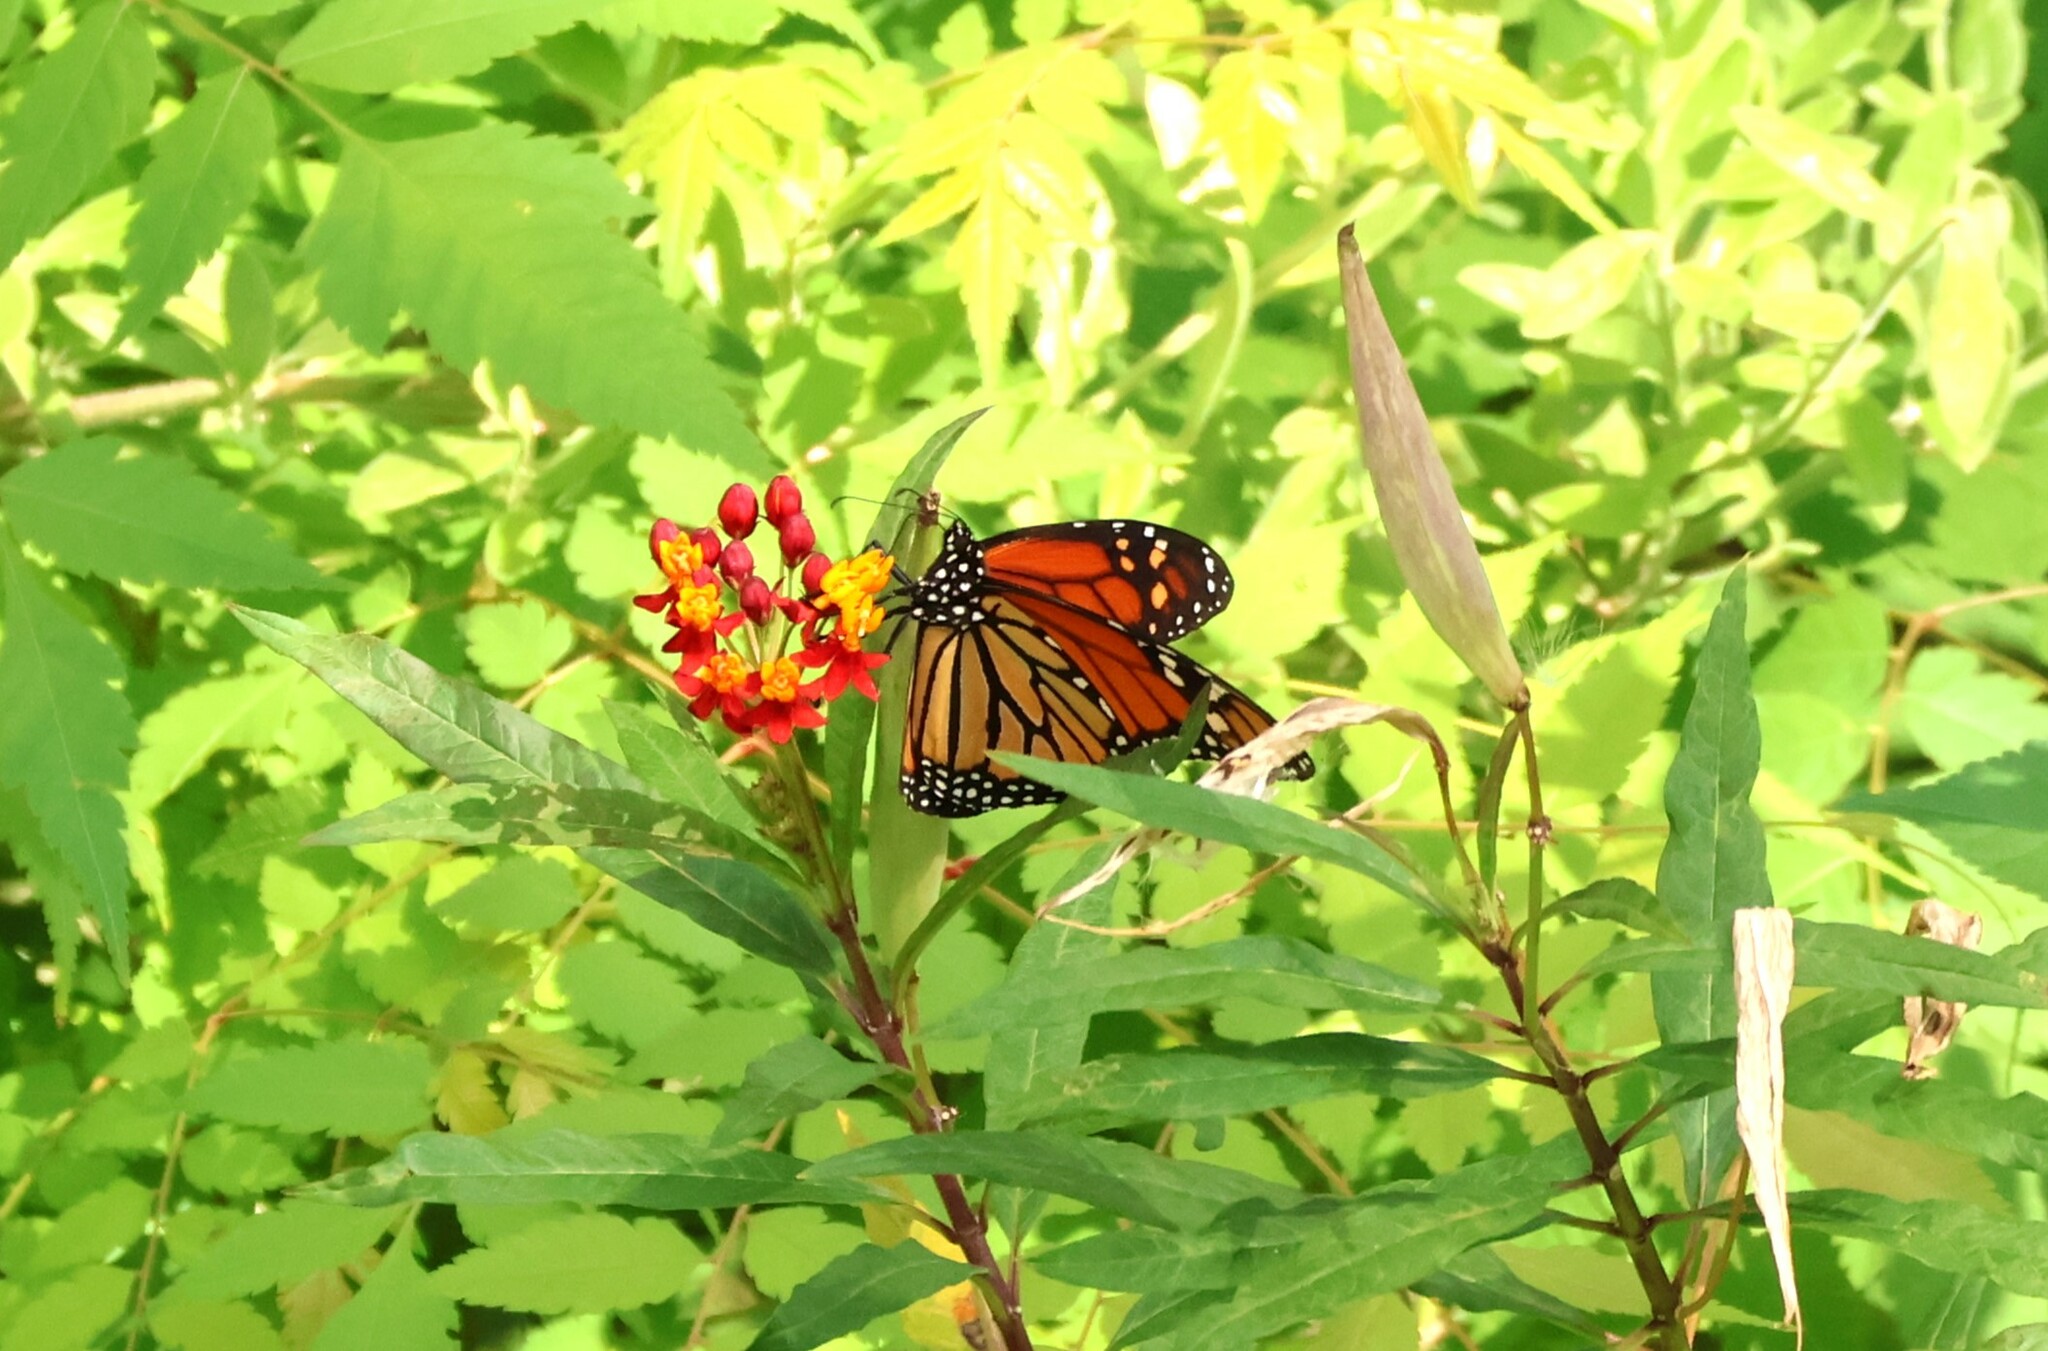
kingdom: Animalia
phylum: Arthropoda
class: Insecta
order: Lepidoptera
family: Nymphalidae
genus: Danaus
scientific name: Danaus plexippus
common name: Monarch
